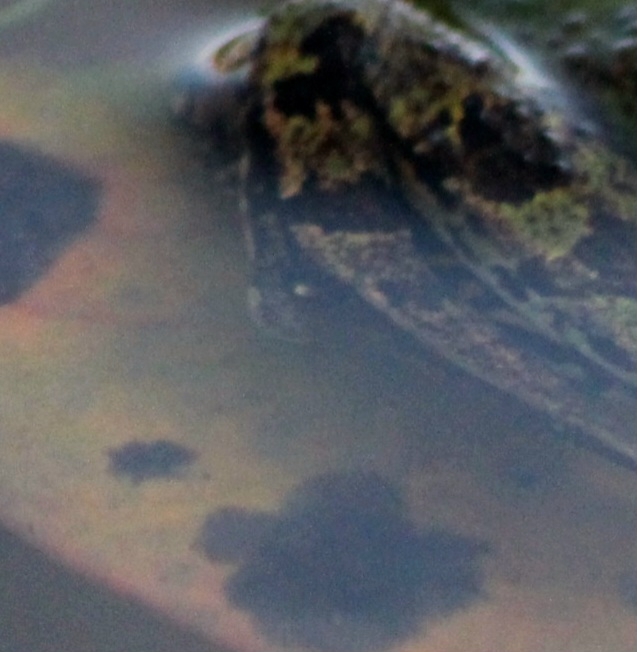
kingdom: Animalia
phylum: Chordata
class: Amphibia
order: Anura
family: Ranidae
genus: Pelophylax
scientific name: Pelophylax
